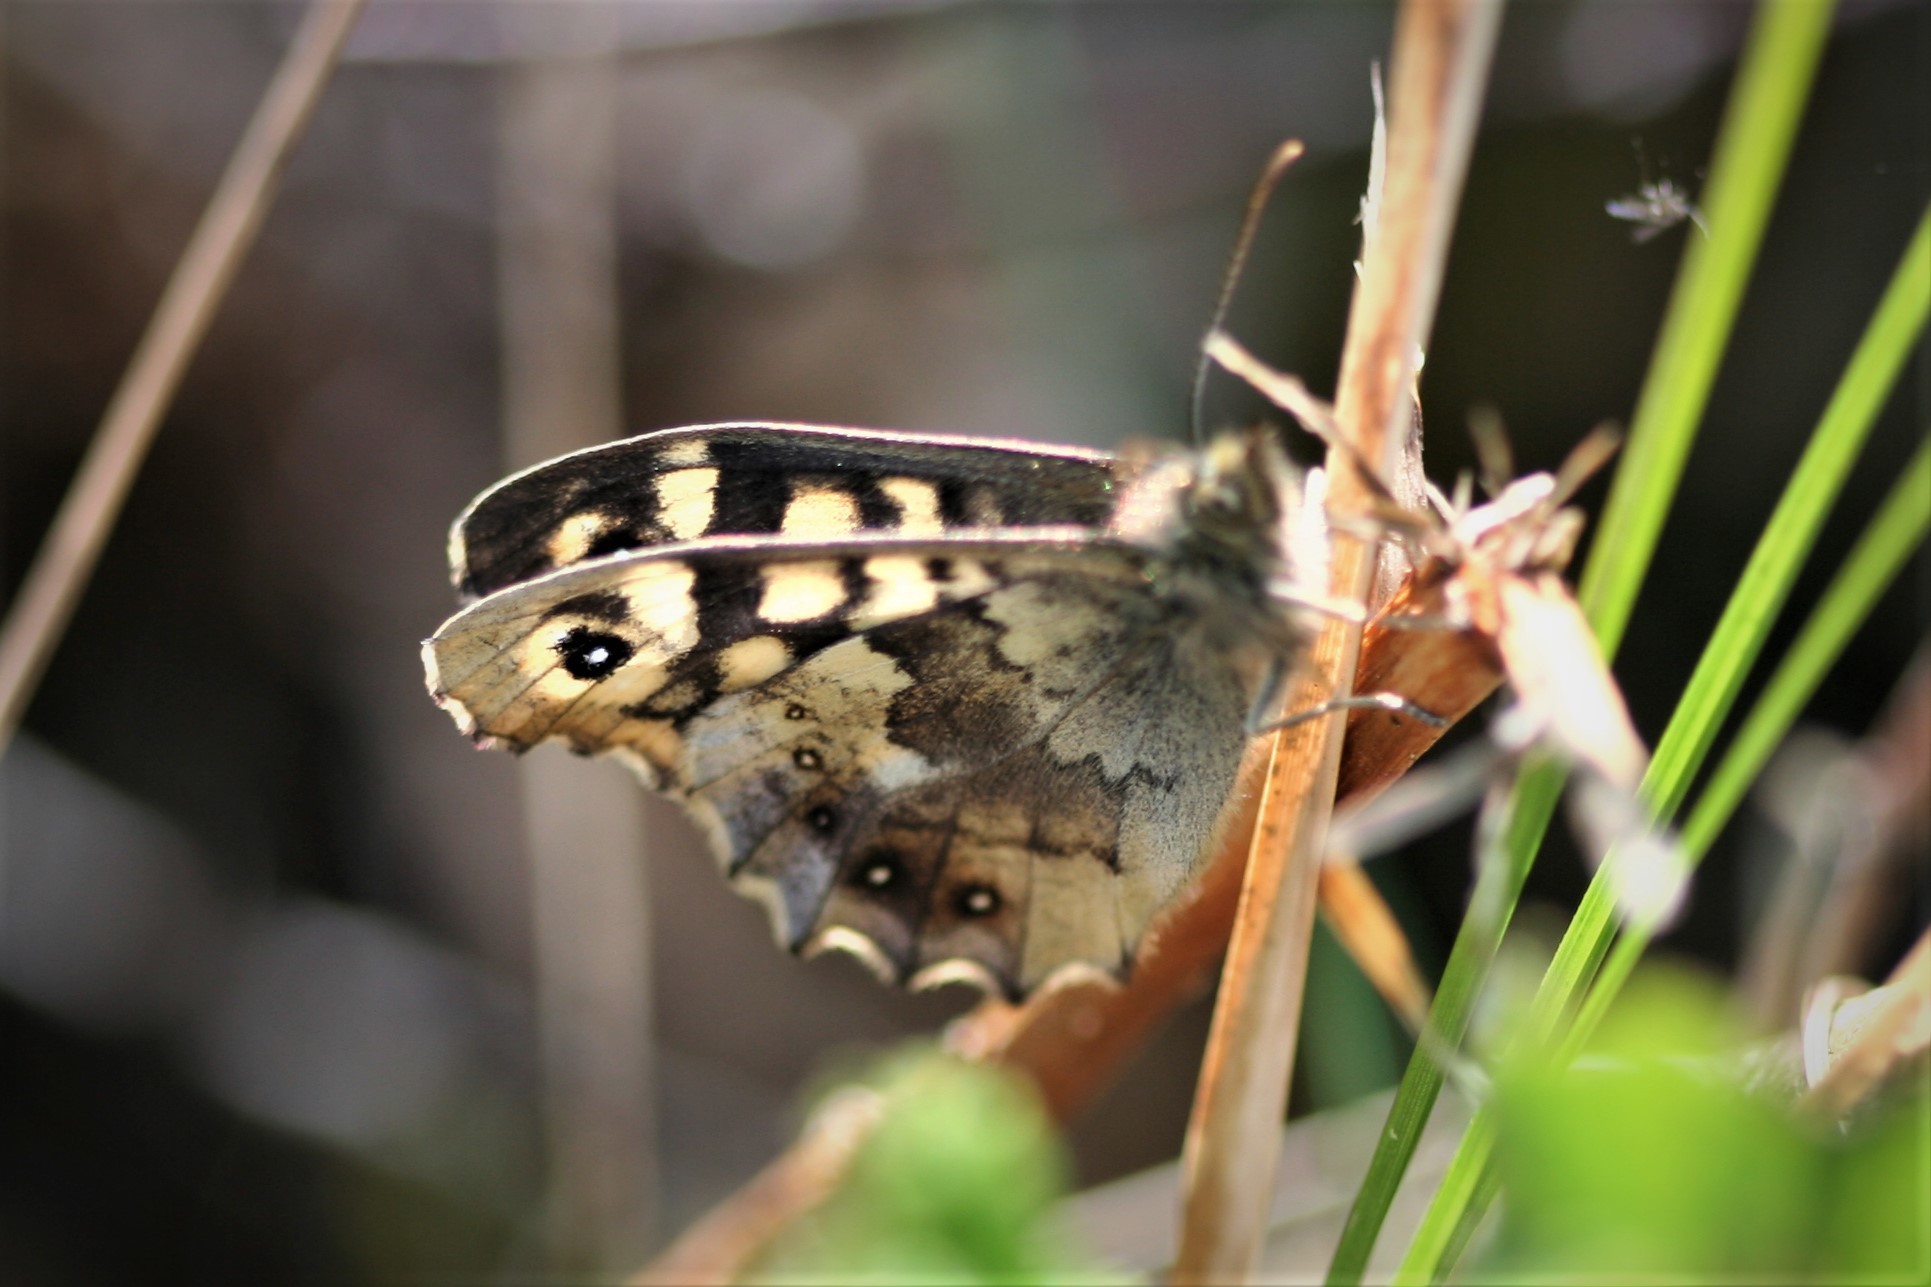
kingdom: Animalia
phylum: Arthropoda
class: Insecta
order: Lepidoptera
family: Nymphalidae
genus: Pararge
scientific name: Pararge aegeria
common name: Speckled wood
